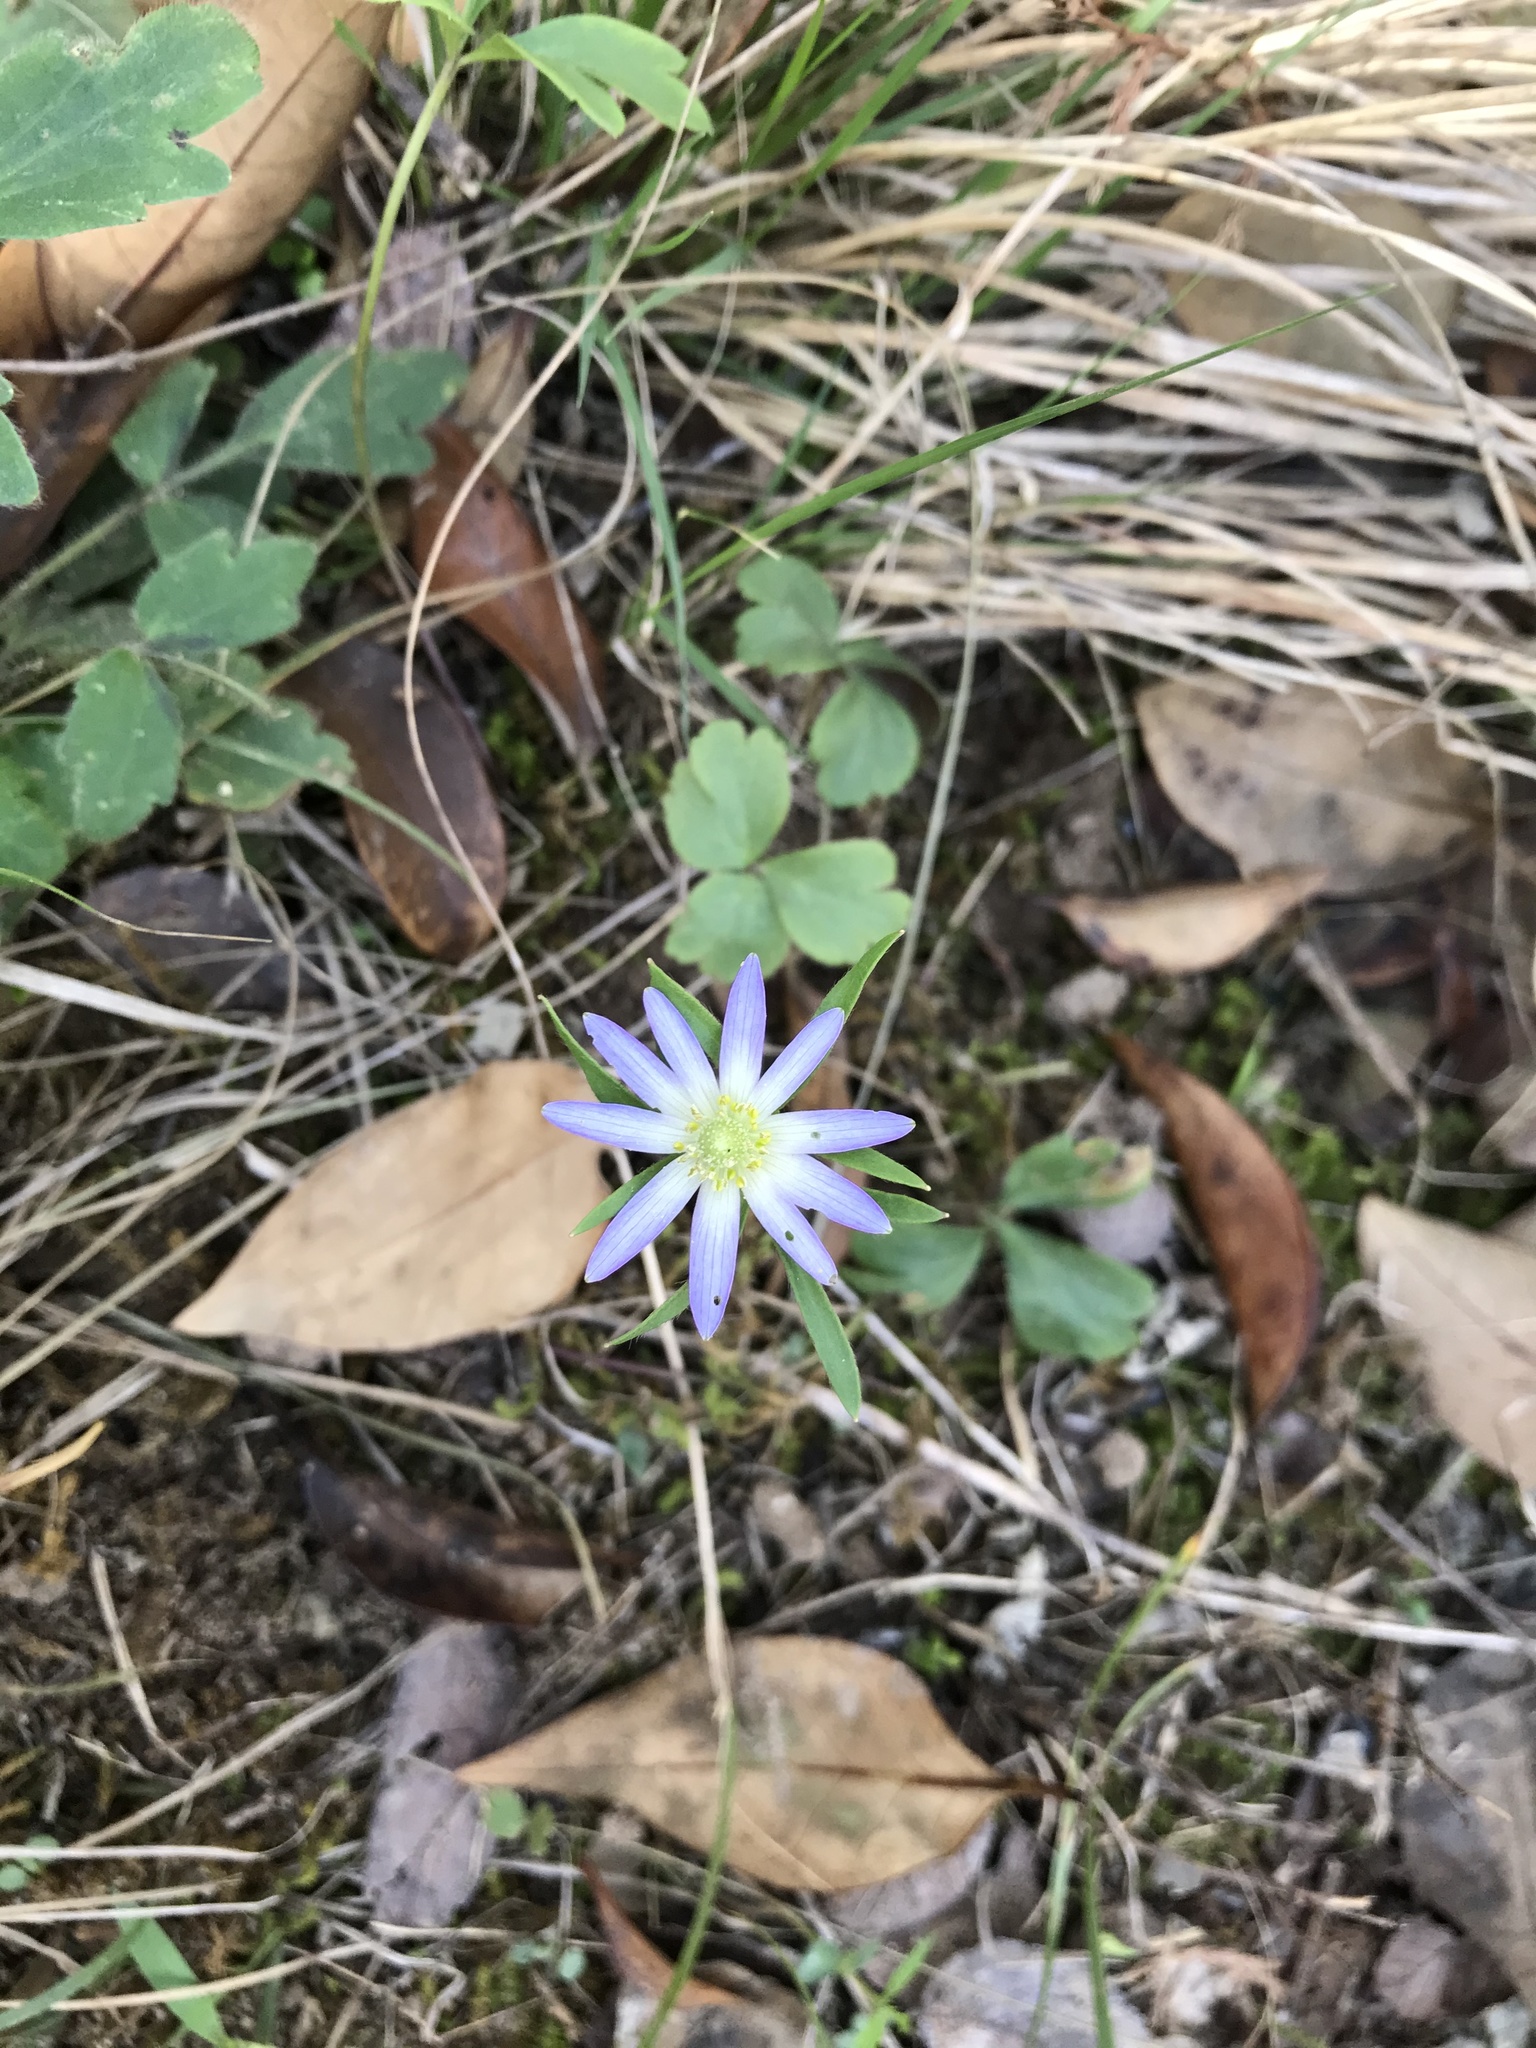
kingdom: Plantae
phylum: Tracheophyta
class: Magnoliopsida
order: Ranunculales
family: Ranunculaceae
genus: Anemone
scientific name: Anemone berlandieri
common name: Ten-petal anemone
